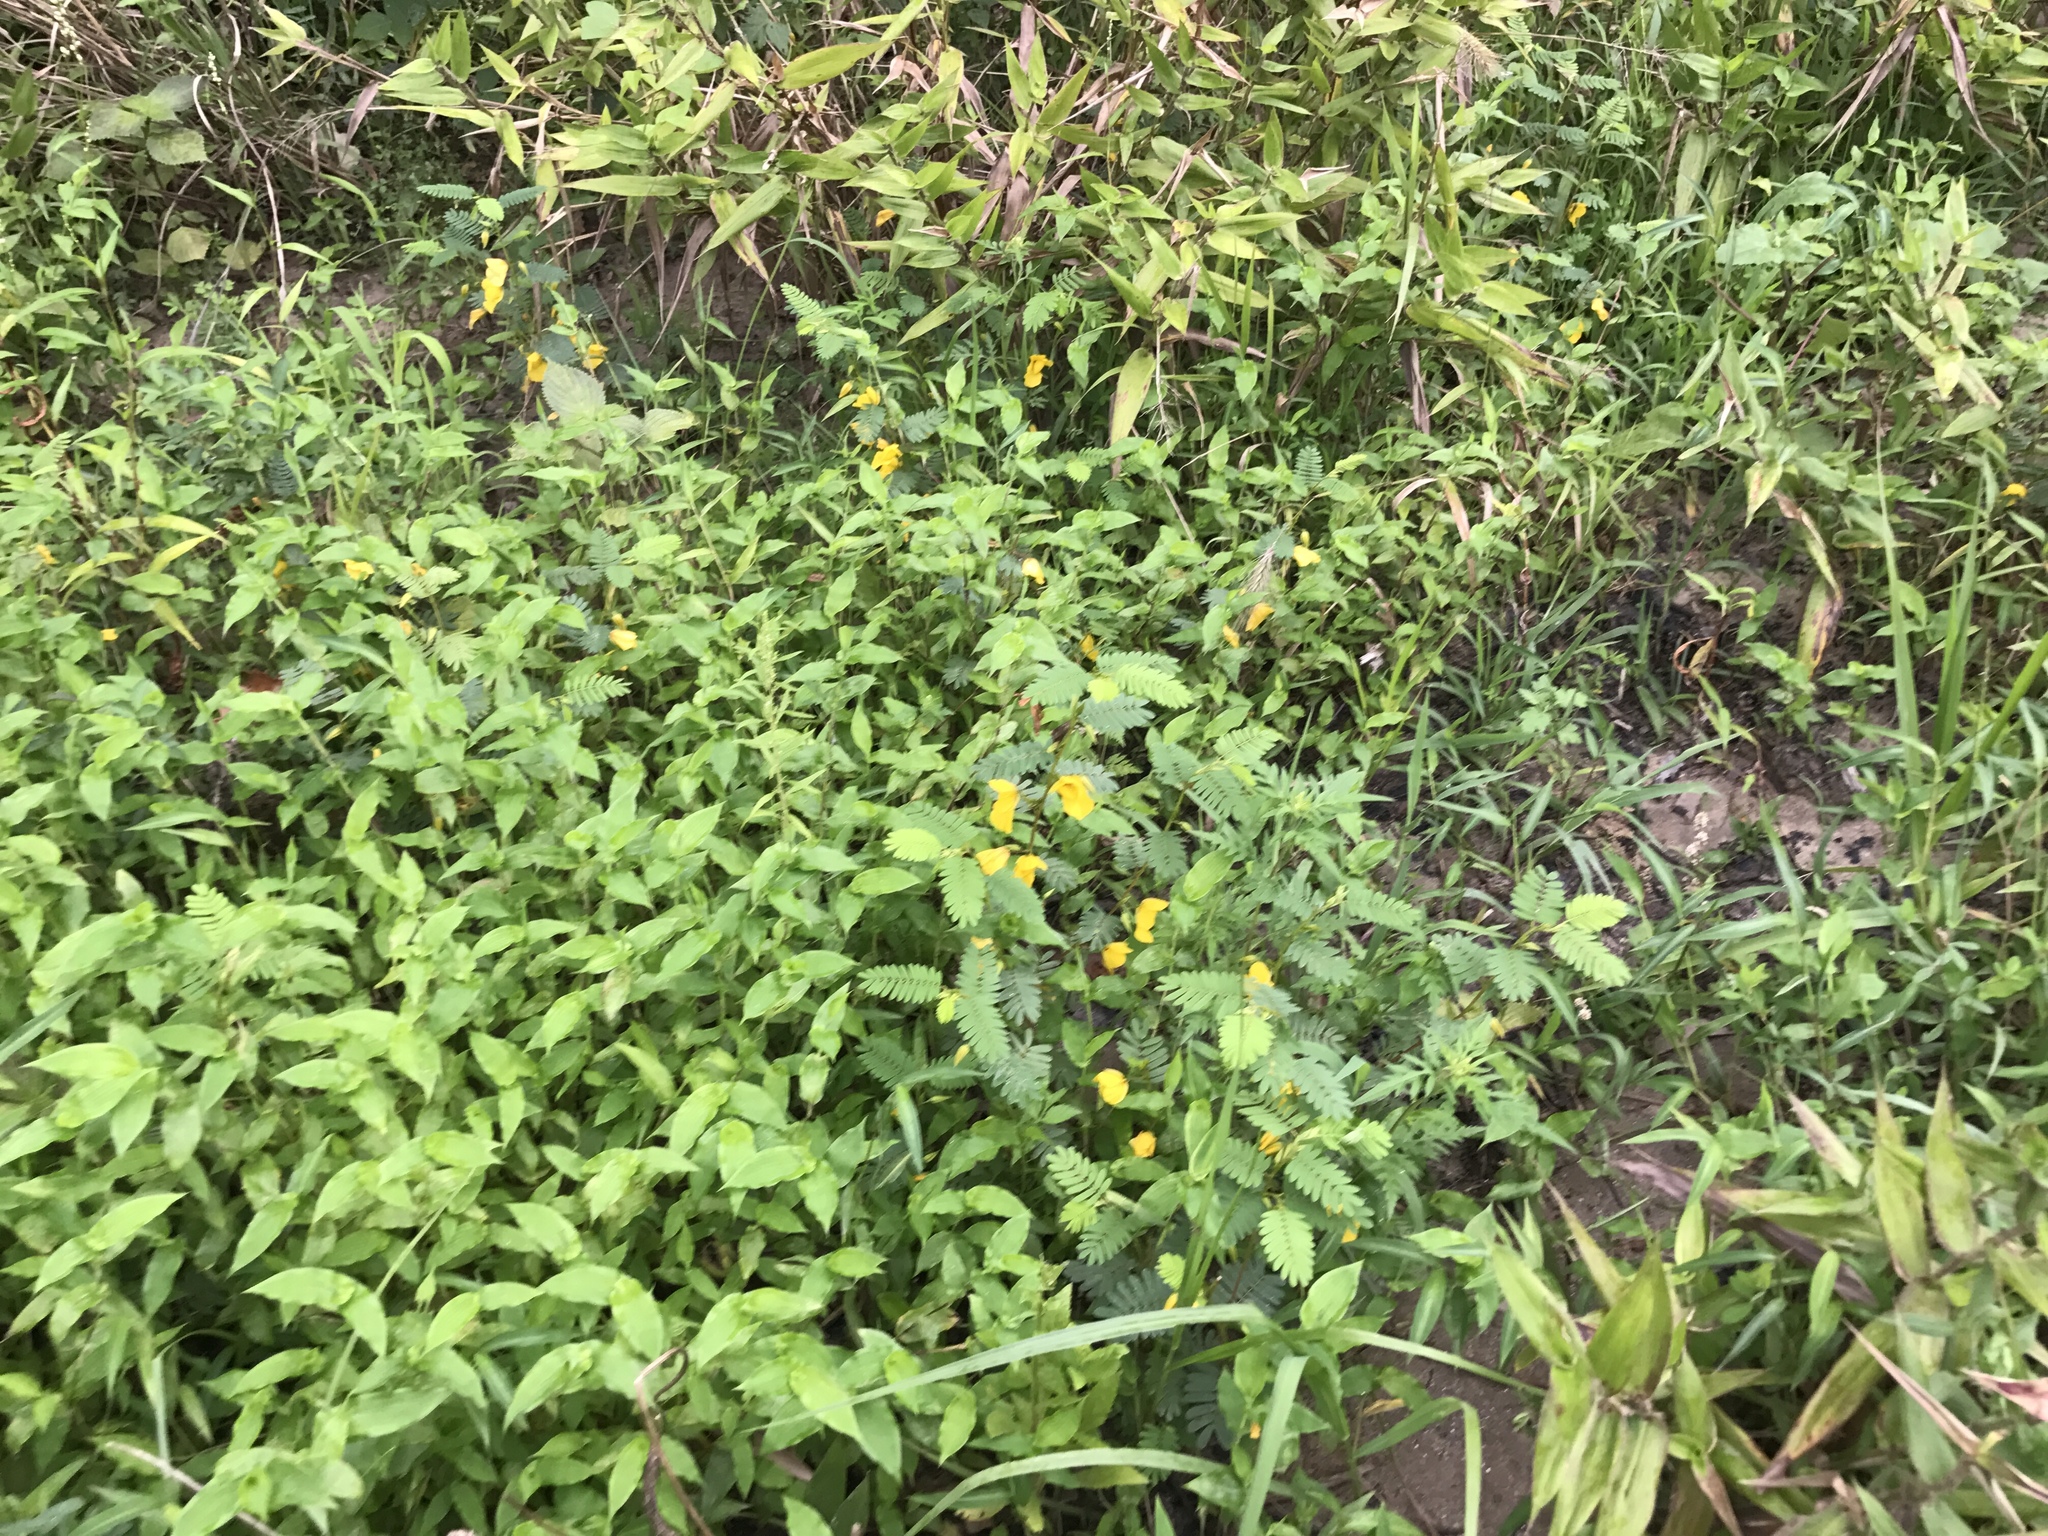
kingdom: Plantae
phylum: Tracheophyta
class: Magnoliopsida
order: Fabales
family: Fabaceae
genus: Chamaecrista
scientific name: Chamaecrista fasciculata
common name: Golden cassia
